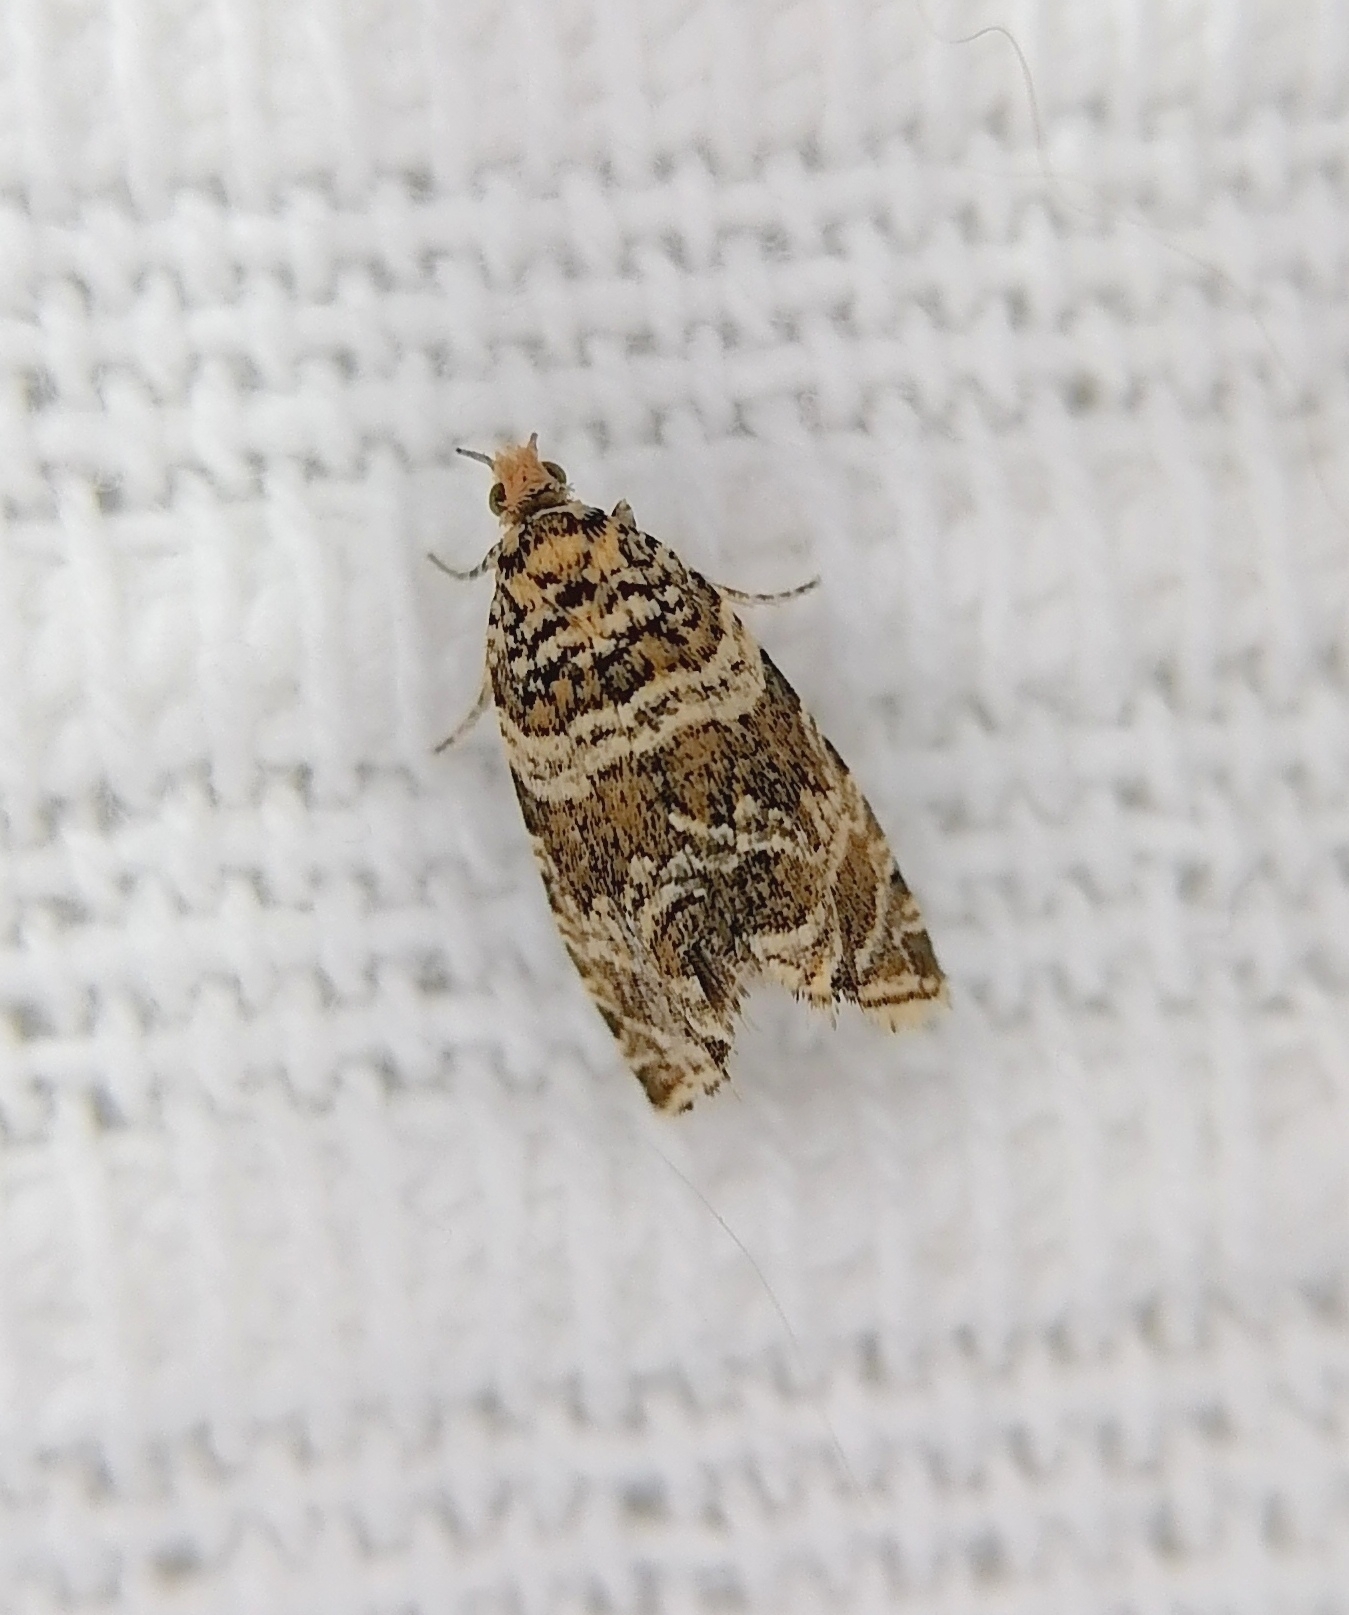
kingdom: Animalia
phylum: Arthropoda
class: Insecta
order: Lepidoptera
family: Tortricidae
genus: Syricoris
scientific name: Syricoris rivulana
